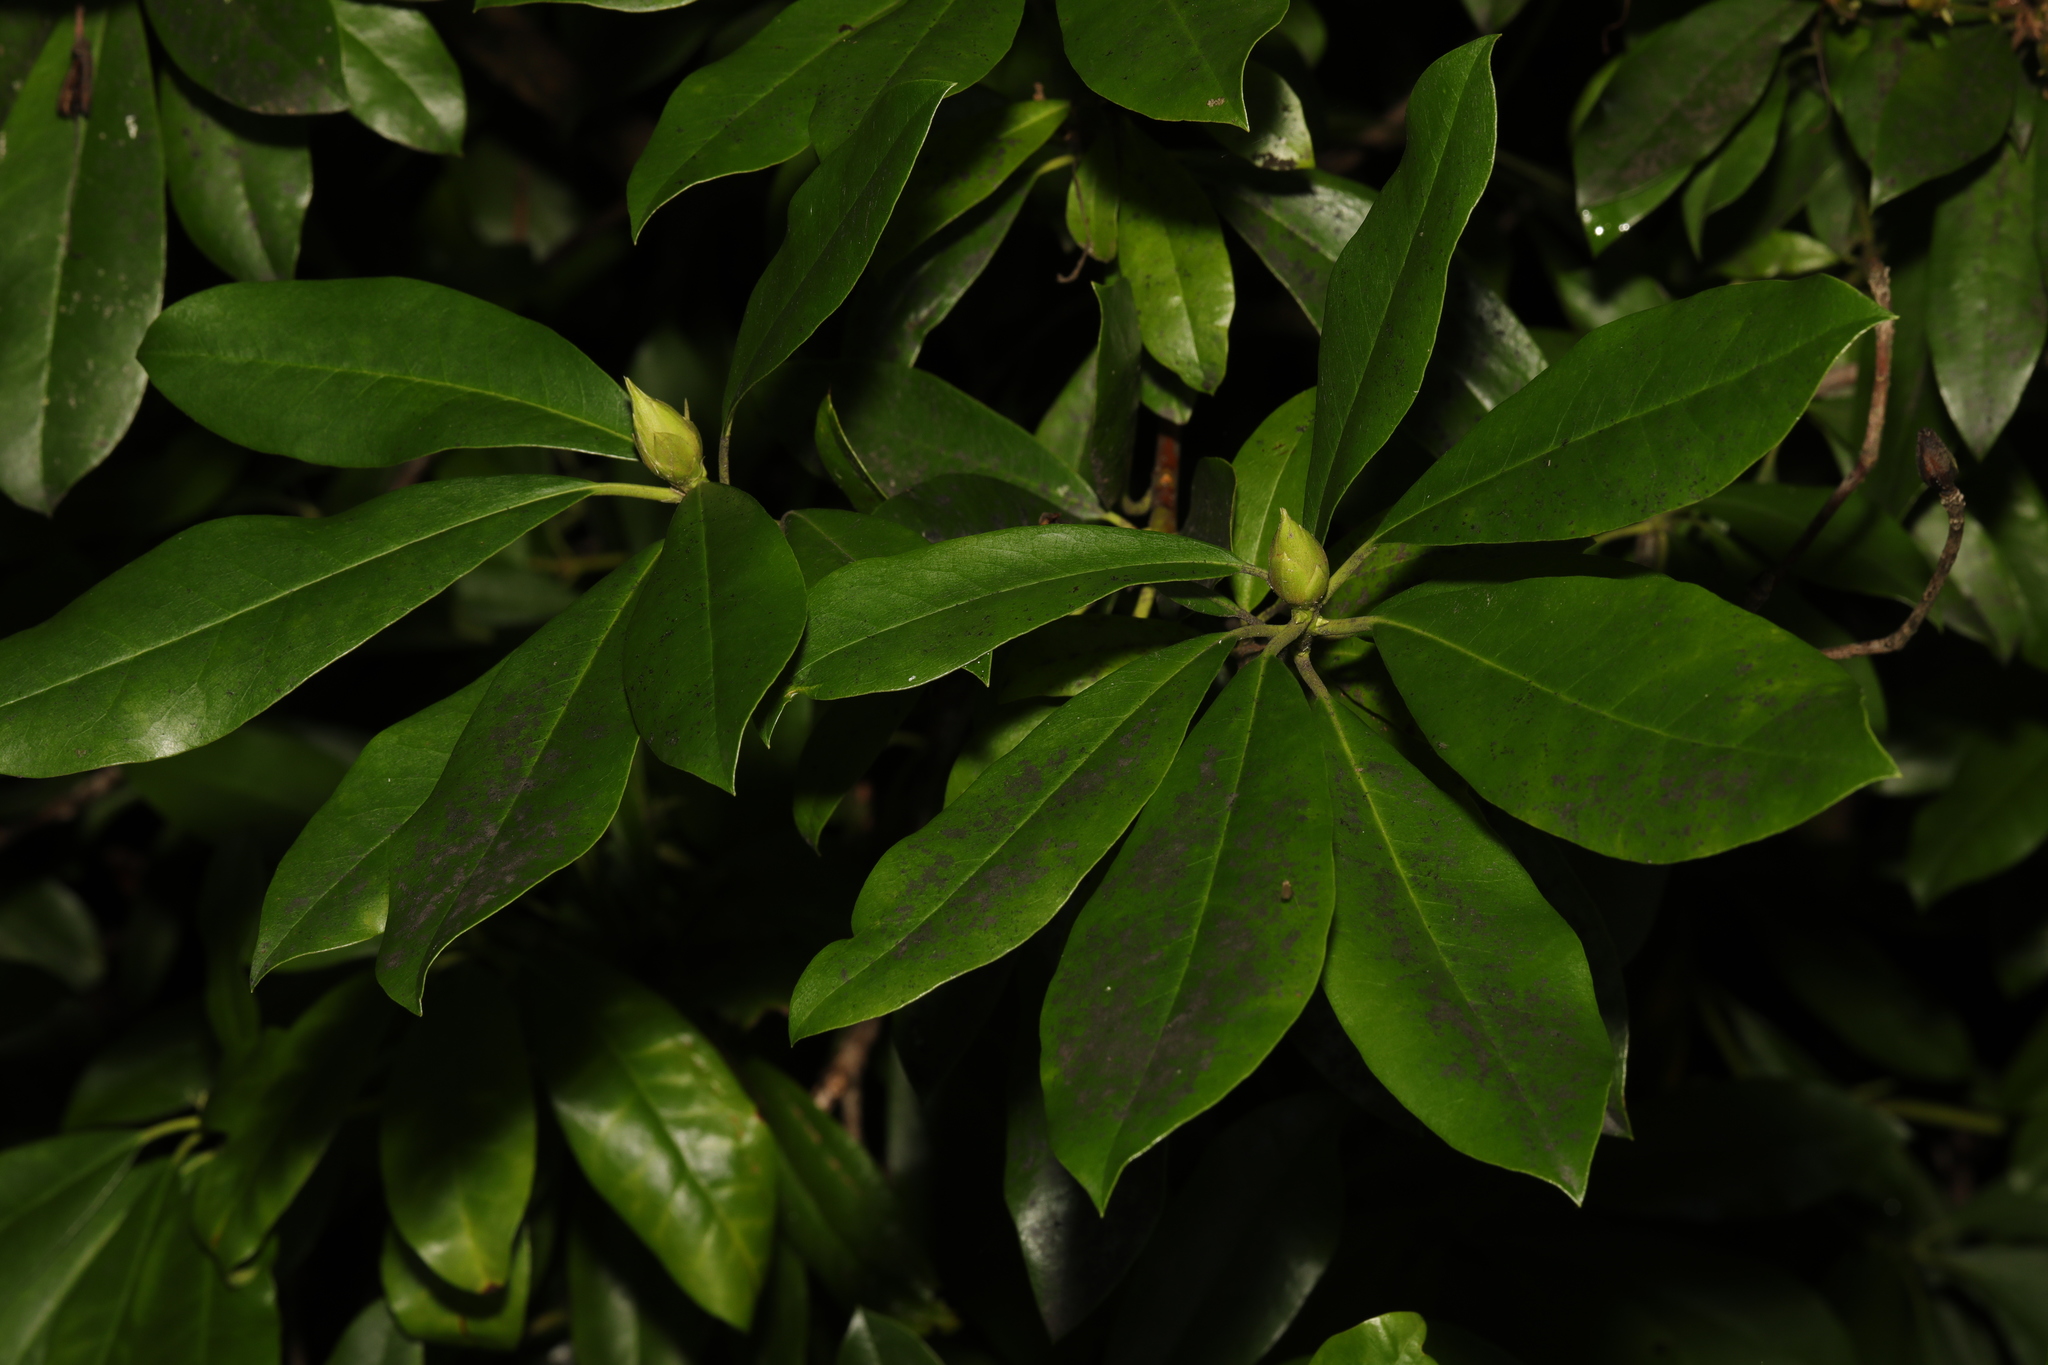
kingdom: Plantae
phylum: Tracheophyta
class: Magnoliopsida
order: Ericales
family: Ericaceae
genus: Rhododendron
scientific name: Rhododendron ponticum
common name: Rhododendron
